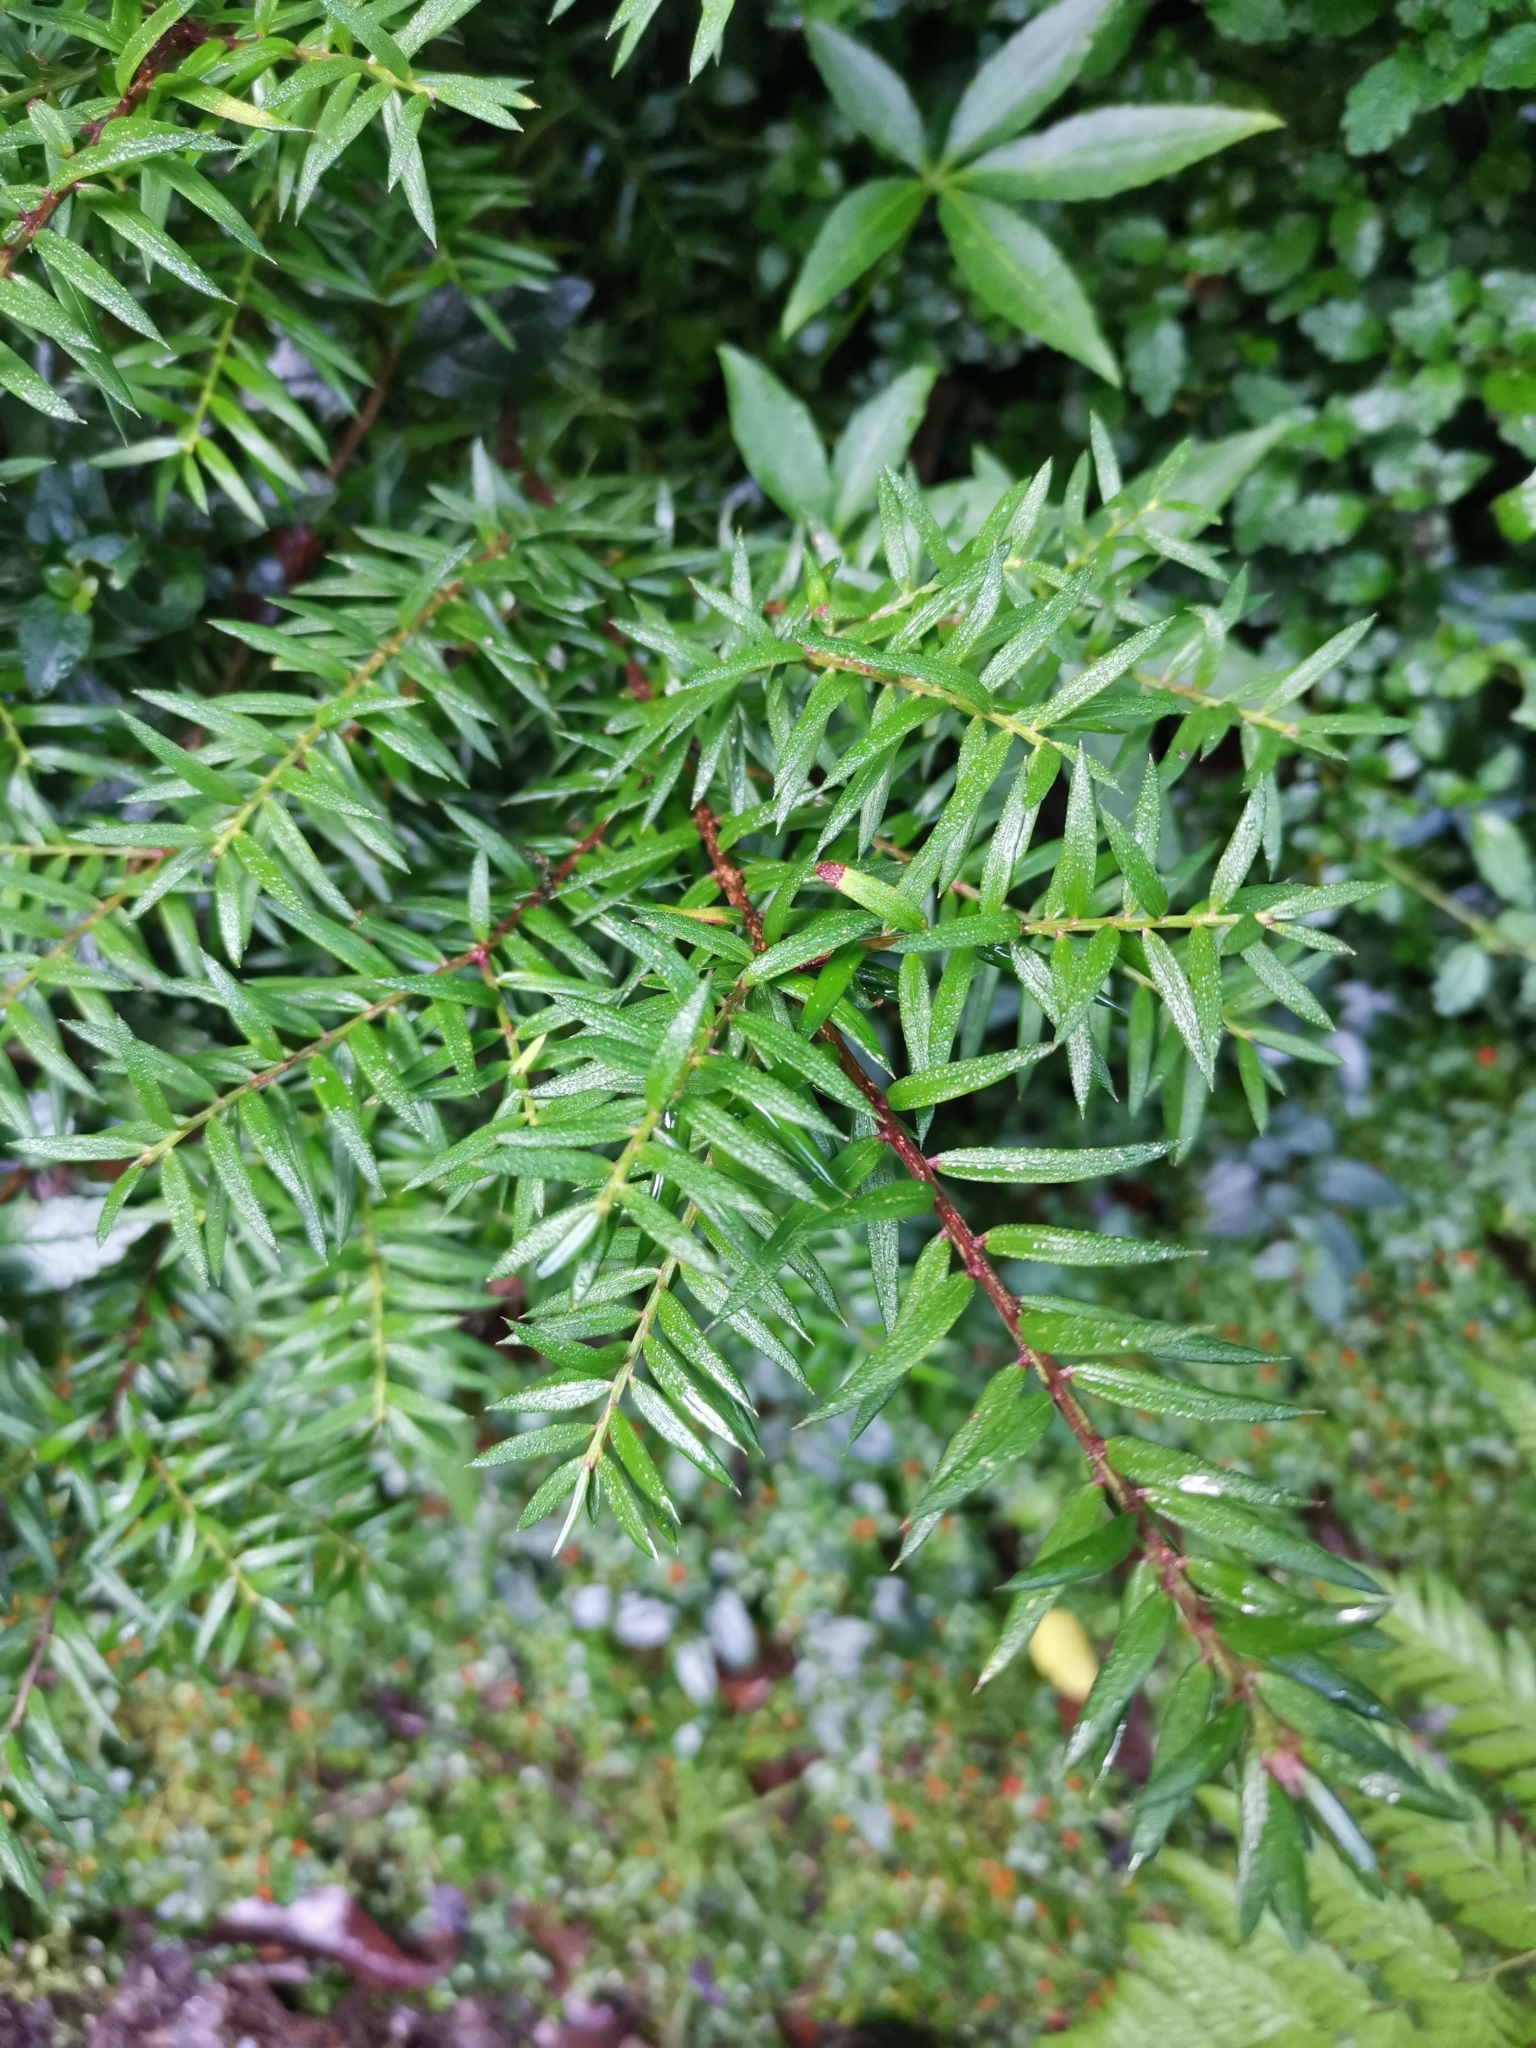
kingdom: Plantae
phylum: Tracheophyta
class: Pinopsida
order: Pinales
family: Podocarpaceae
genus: Saxegothaea
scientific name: Saxegothaea conspicua
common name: Prince albert's yew
